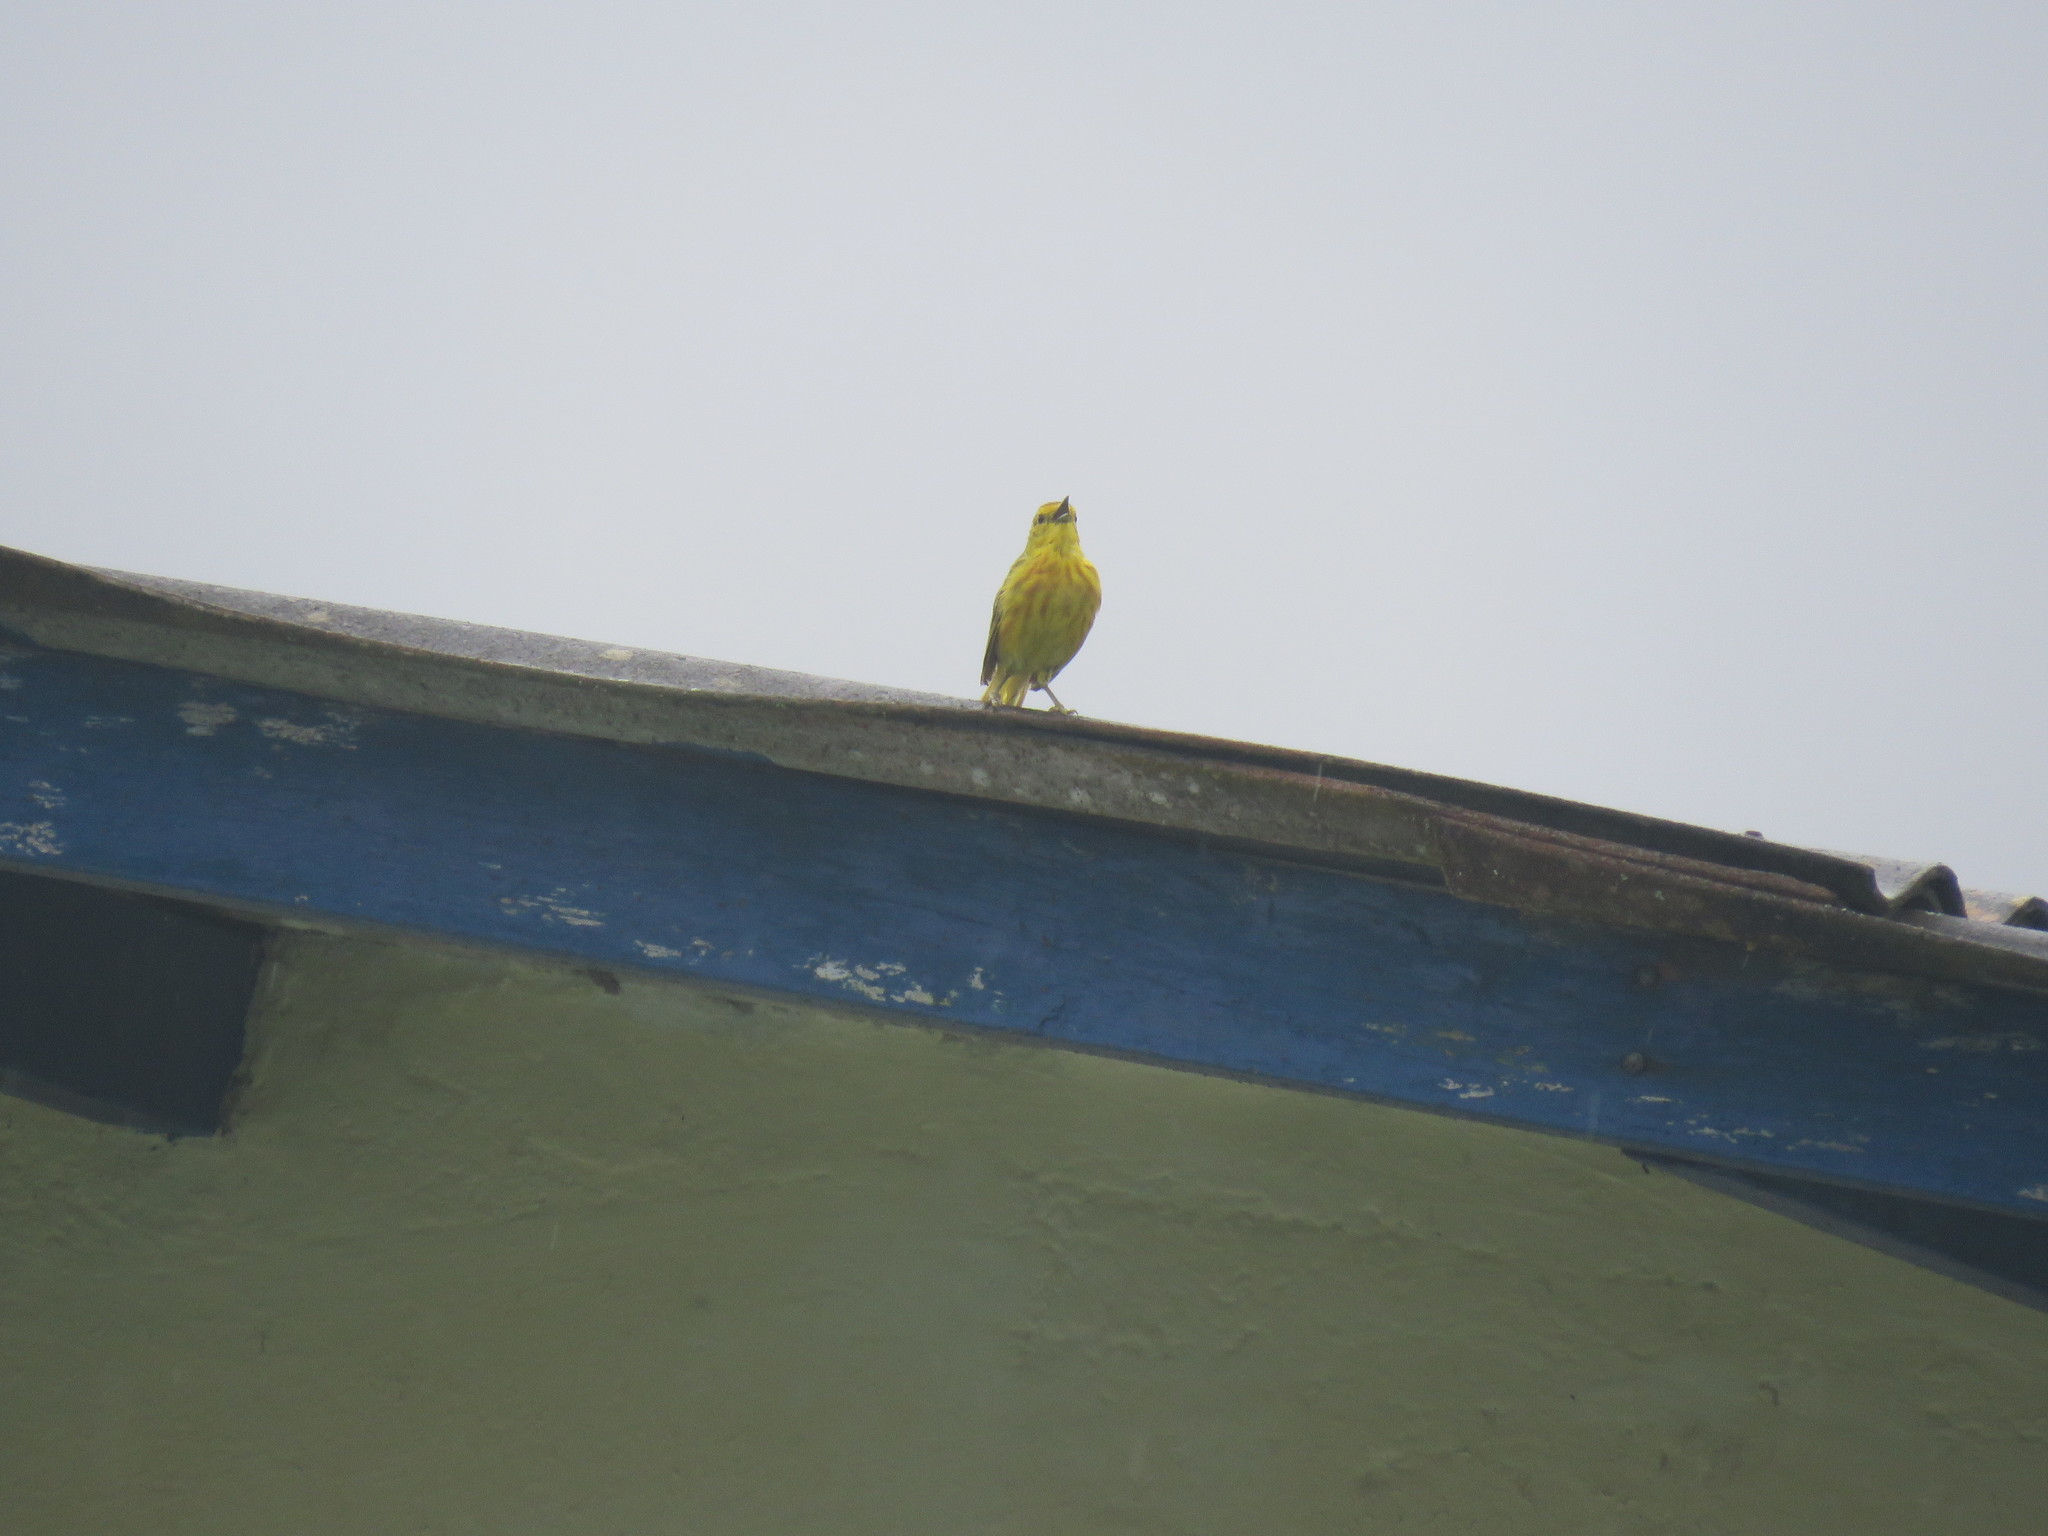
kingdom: Animalia
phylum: Chordata
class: Aves
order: Passeriformes
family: Parulidae
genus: Setophaga
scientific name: Setophaga petechia
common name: Yellow warbler
